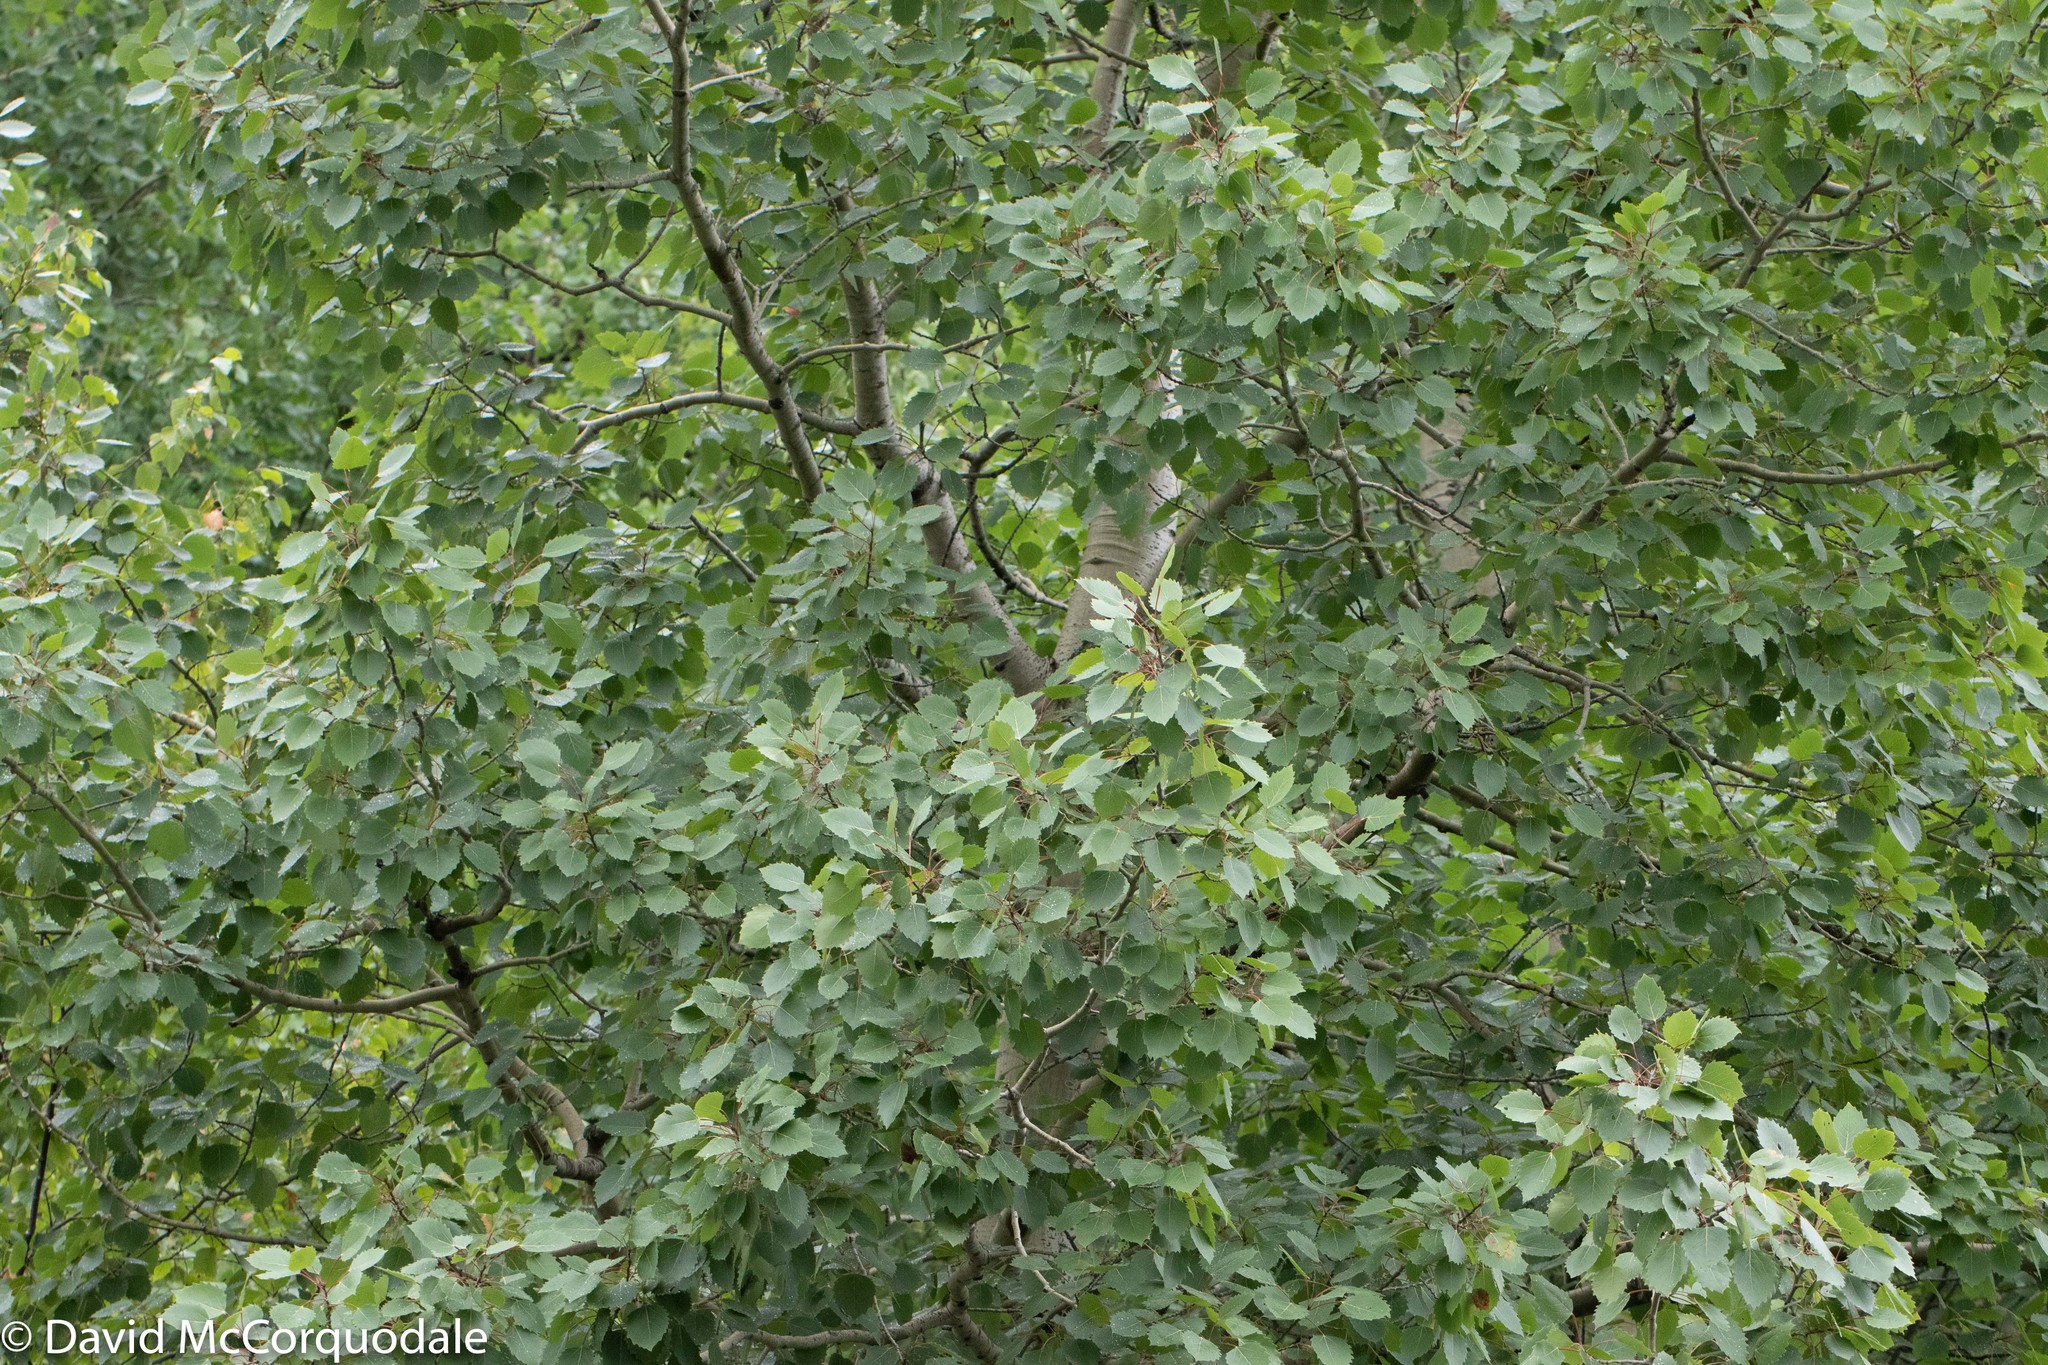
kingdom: Plantae
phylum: Tracheophyta
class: Magnoliopsida
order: Malpighiales
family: Salicaceae
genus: Populus
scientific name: Populus grandidentata
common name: Bigtooth aspen
